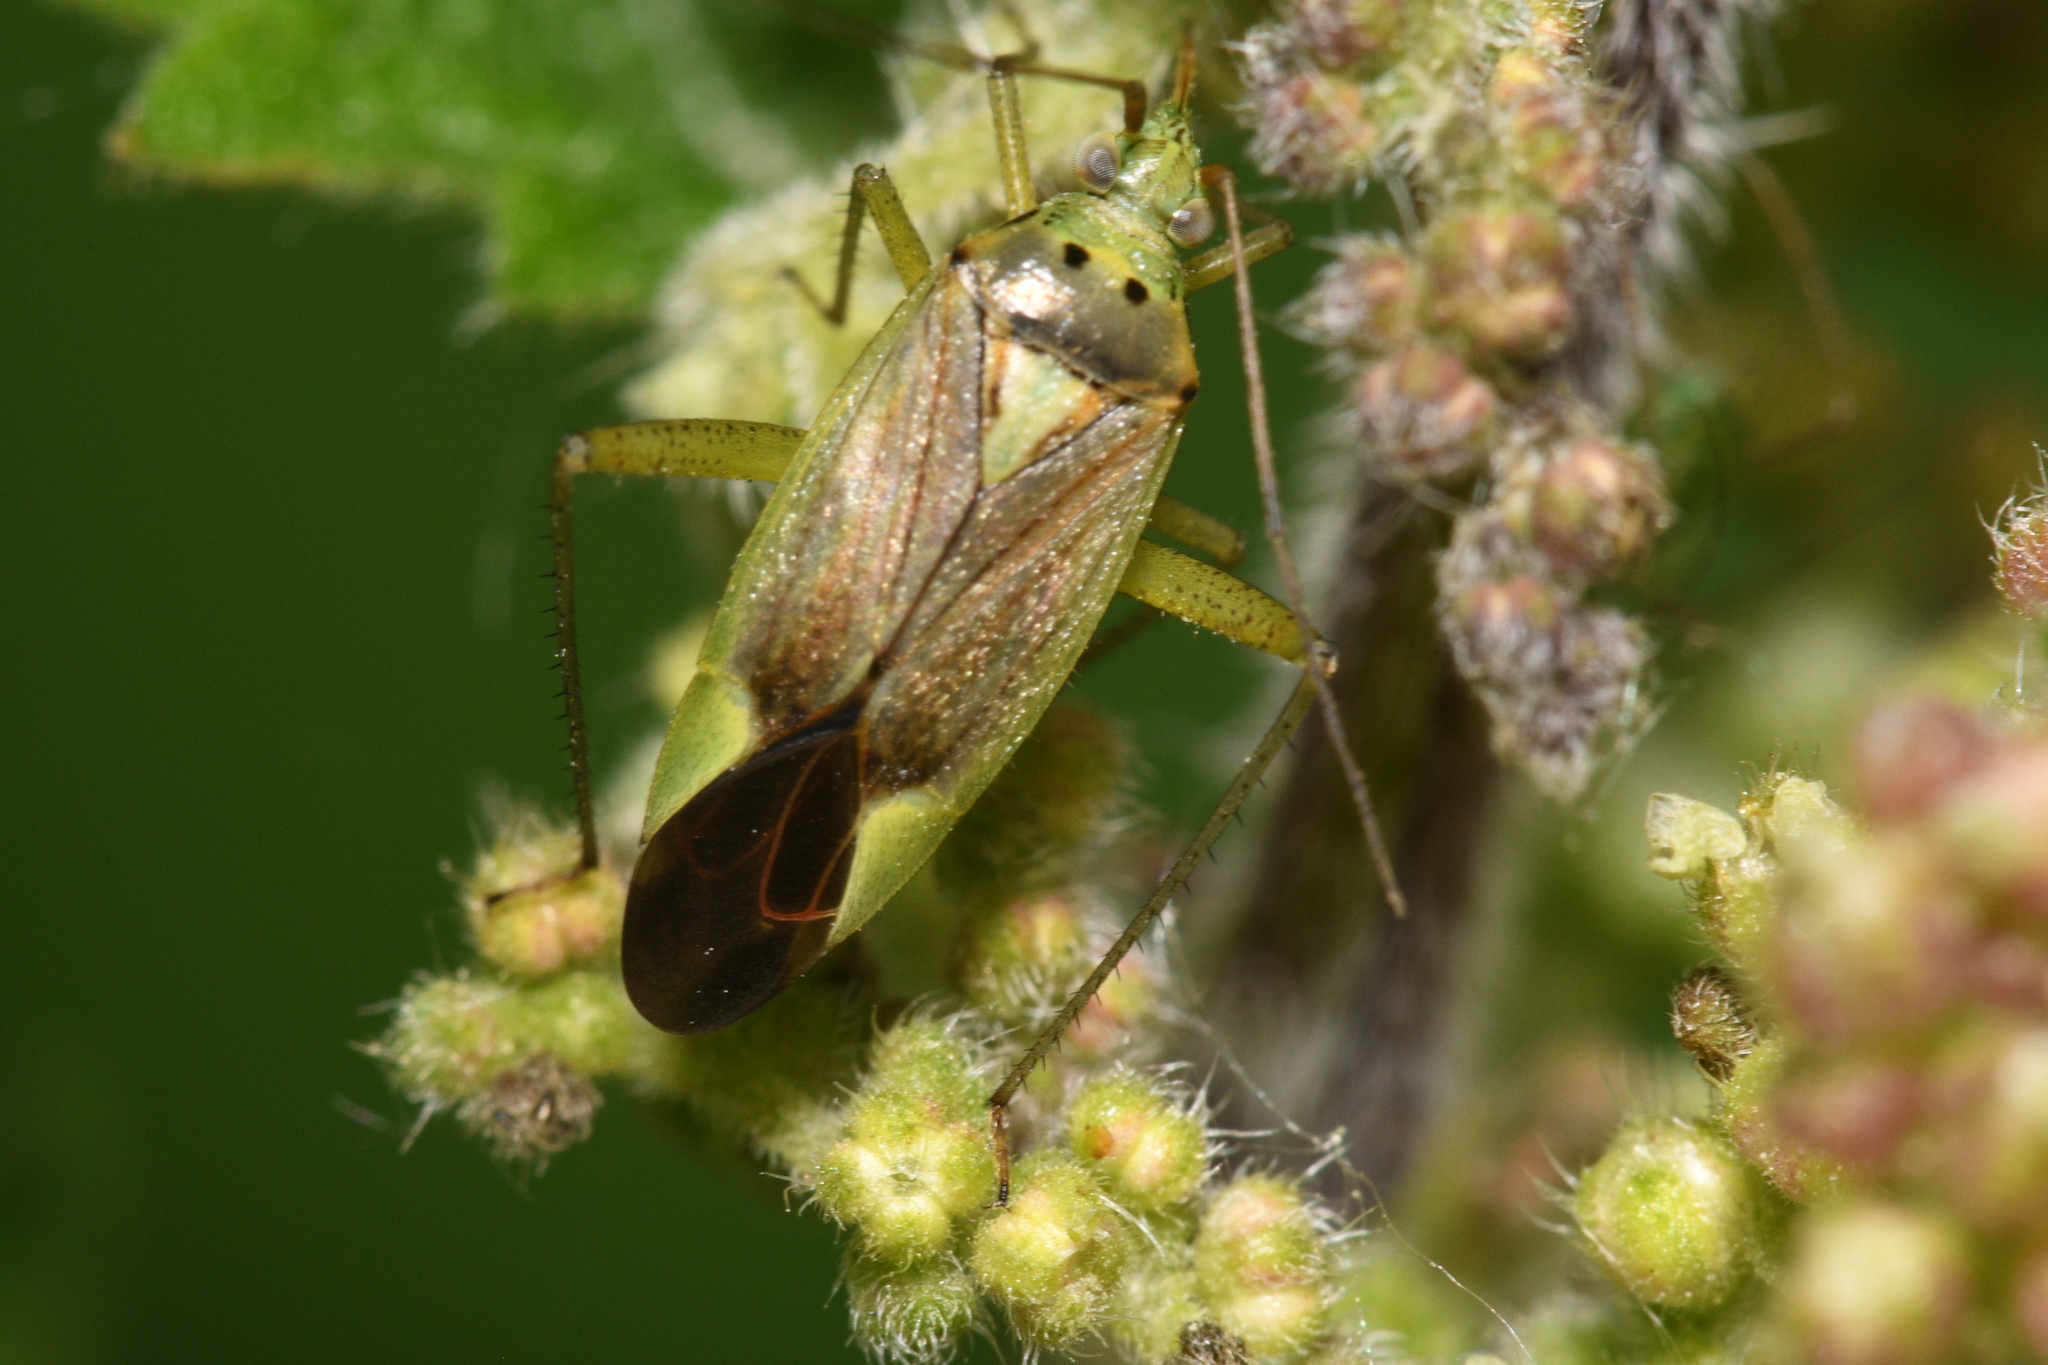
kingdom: Animalia
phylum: Arthropoda
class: Insecta
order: Hemiptera
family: Miridae
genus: Closterotomus
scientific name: Closterotomus trivialis
